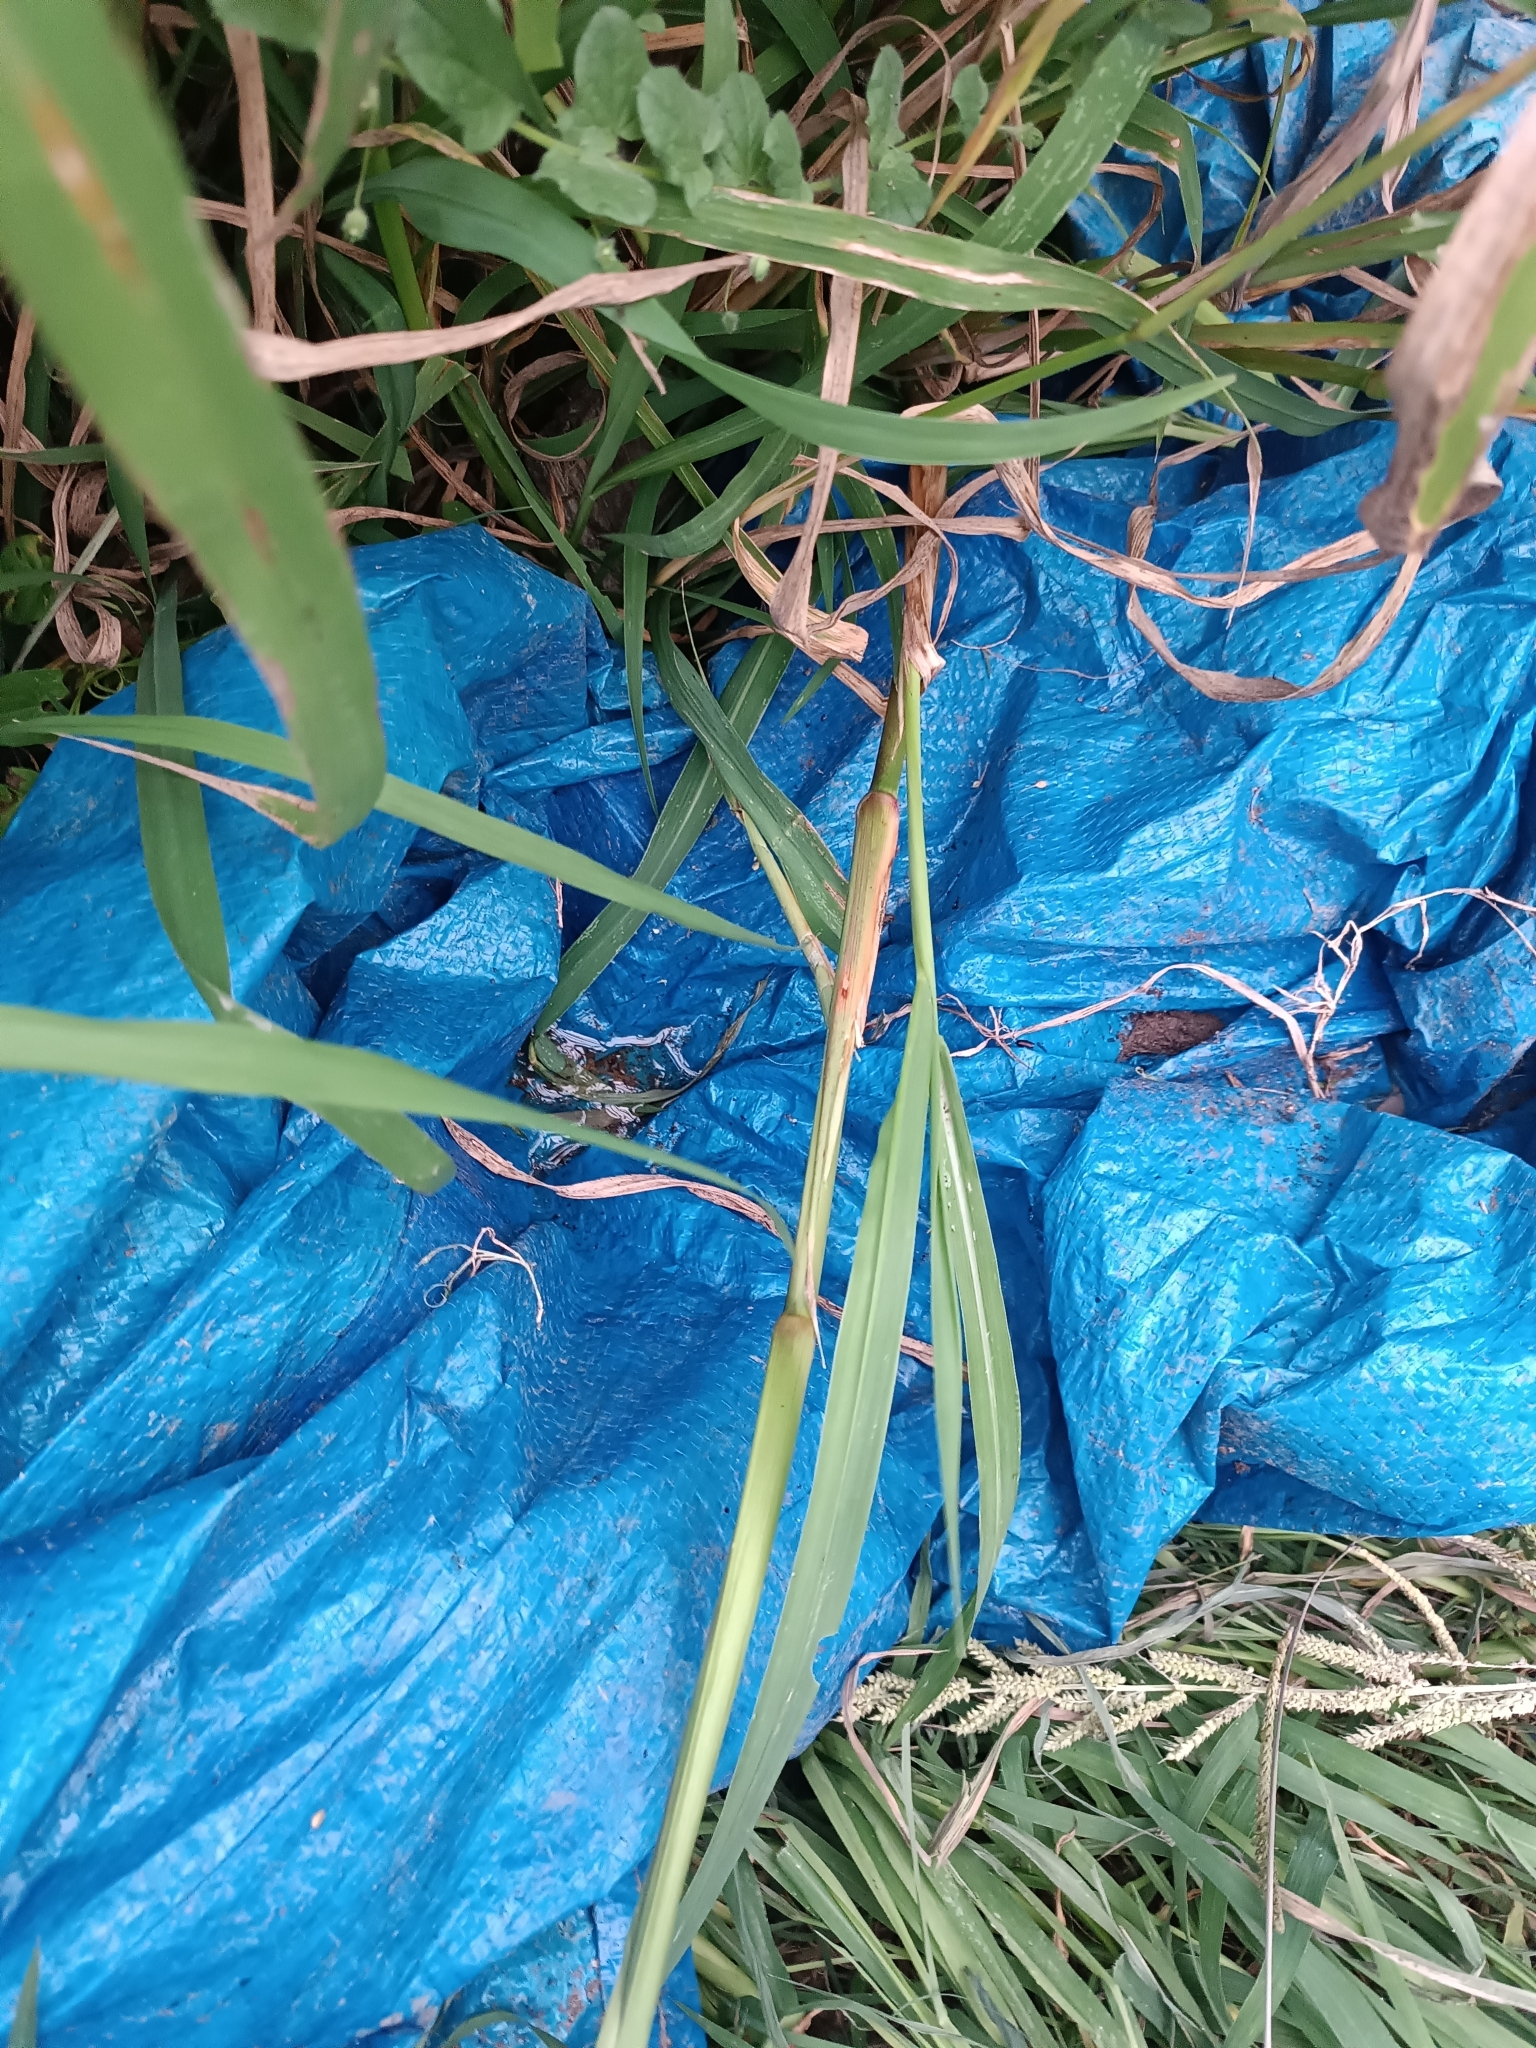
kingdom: Plantae
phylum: Tracheophyta
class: Liliopsida
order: Poales
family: Poaceae
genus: Echinochloa
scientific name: Echinochloa crus-galli
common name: Cockspur
